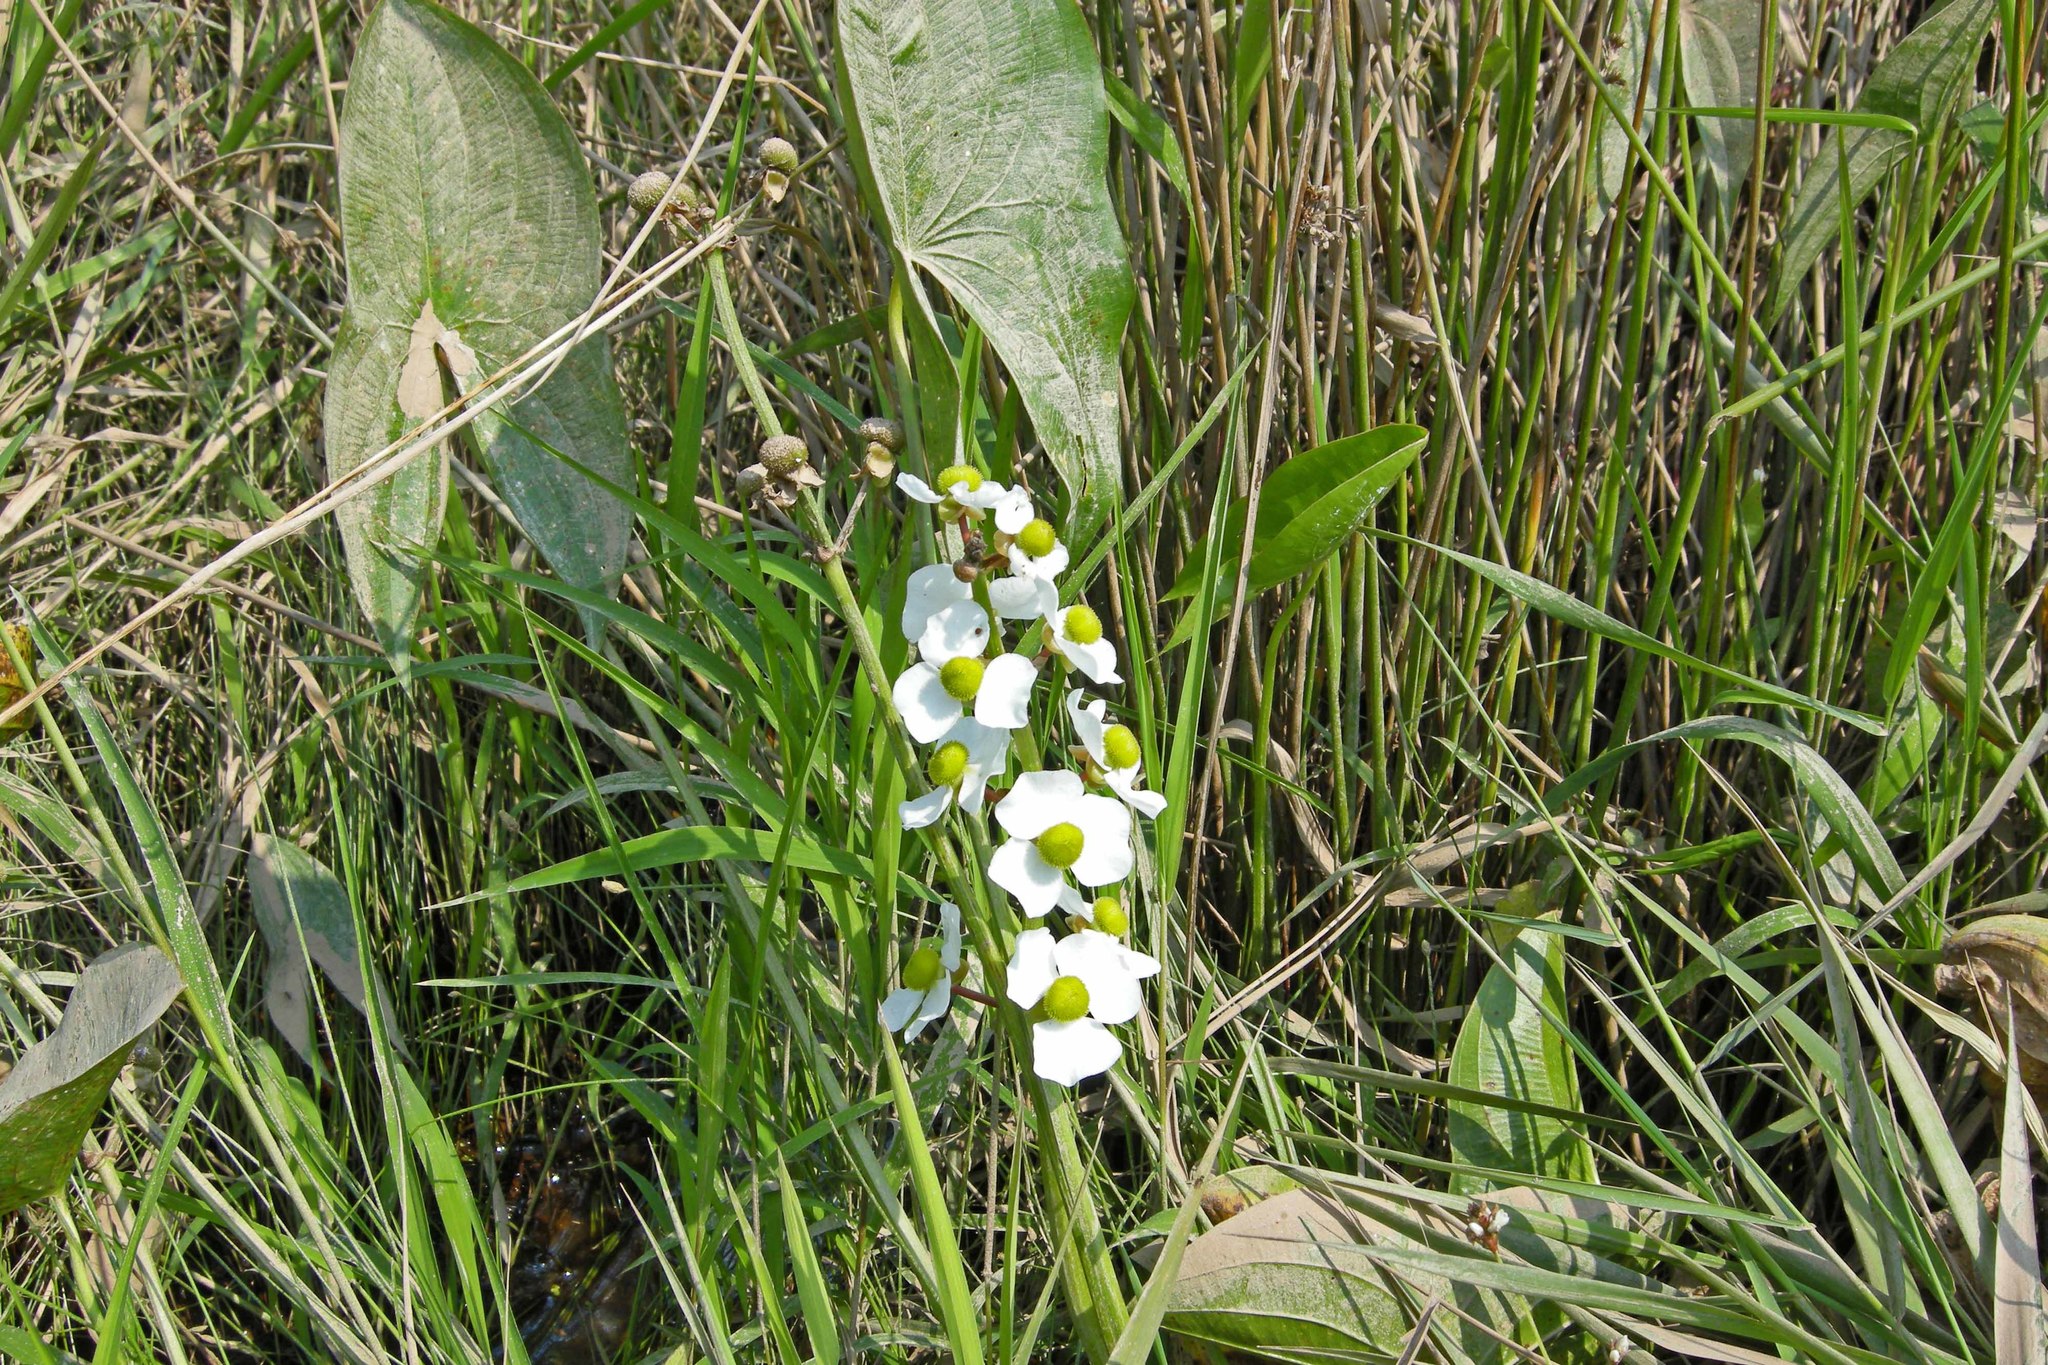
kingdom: Plantae
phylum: Tracheophyta
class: Liliopsida
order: Alismatales
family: Alismataceae
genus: Sagittaria
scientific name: Sagittaria latifolia
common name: Duck-potato
